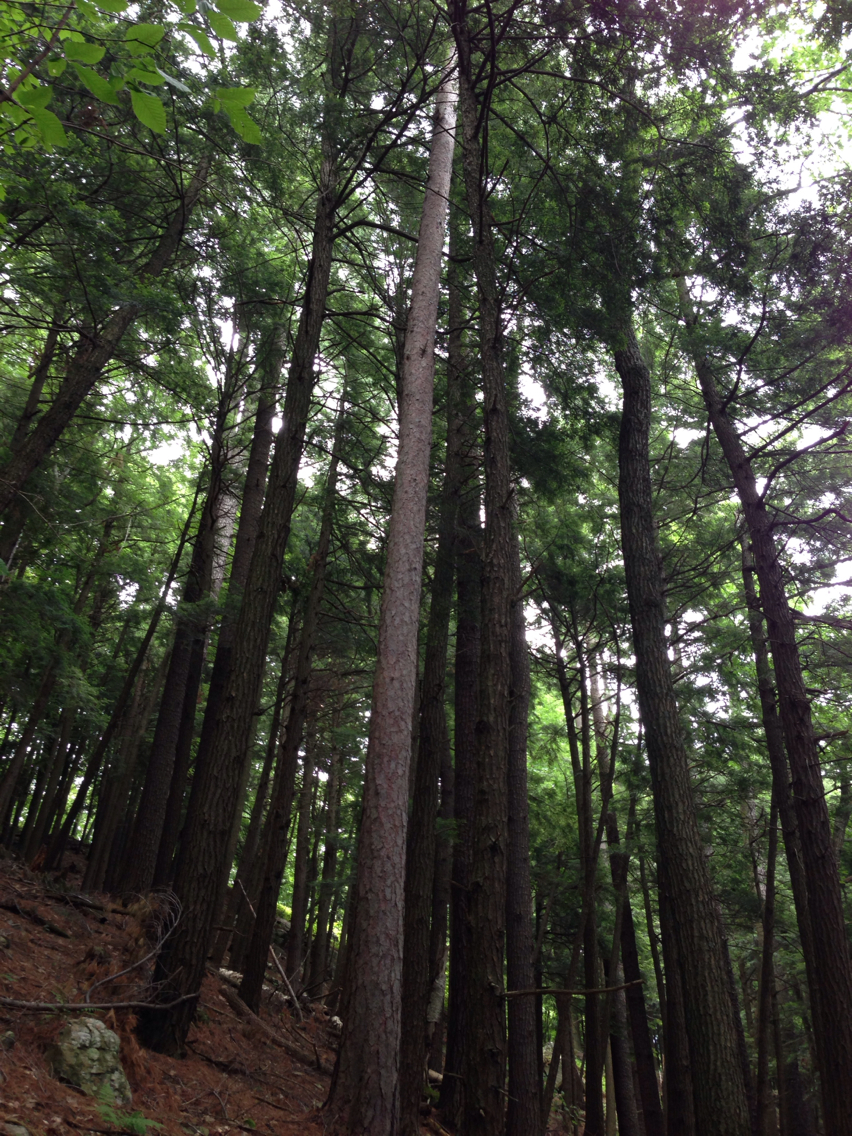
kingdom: Plantae
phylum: Tracheophyta
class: Pinopsida
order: Pinales
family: Pinaceae
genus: Pinus
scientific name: Pinus resinosa
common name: Norway pine
